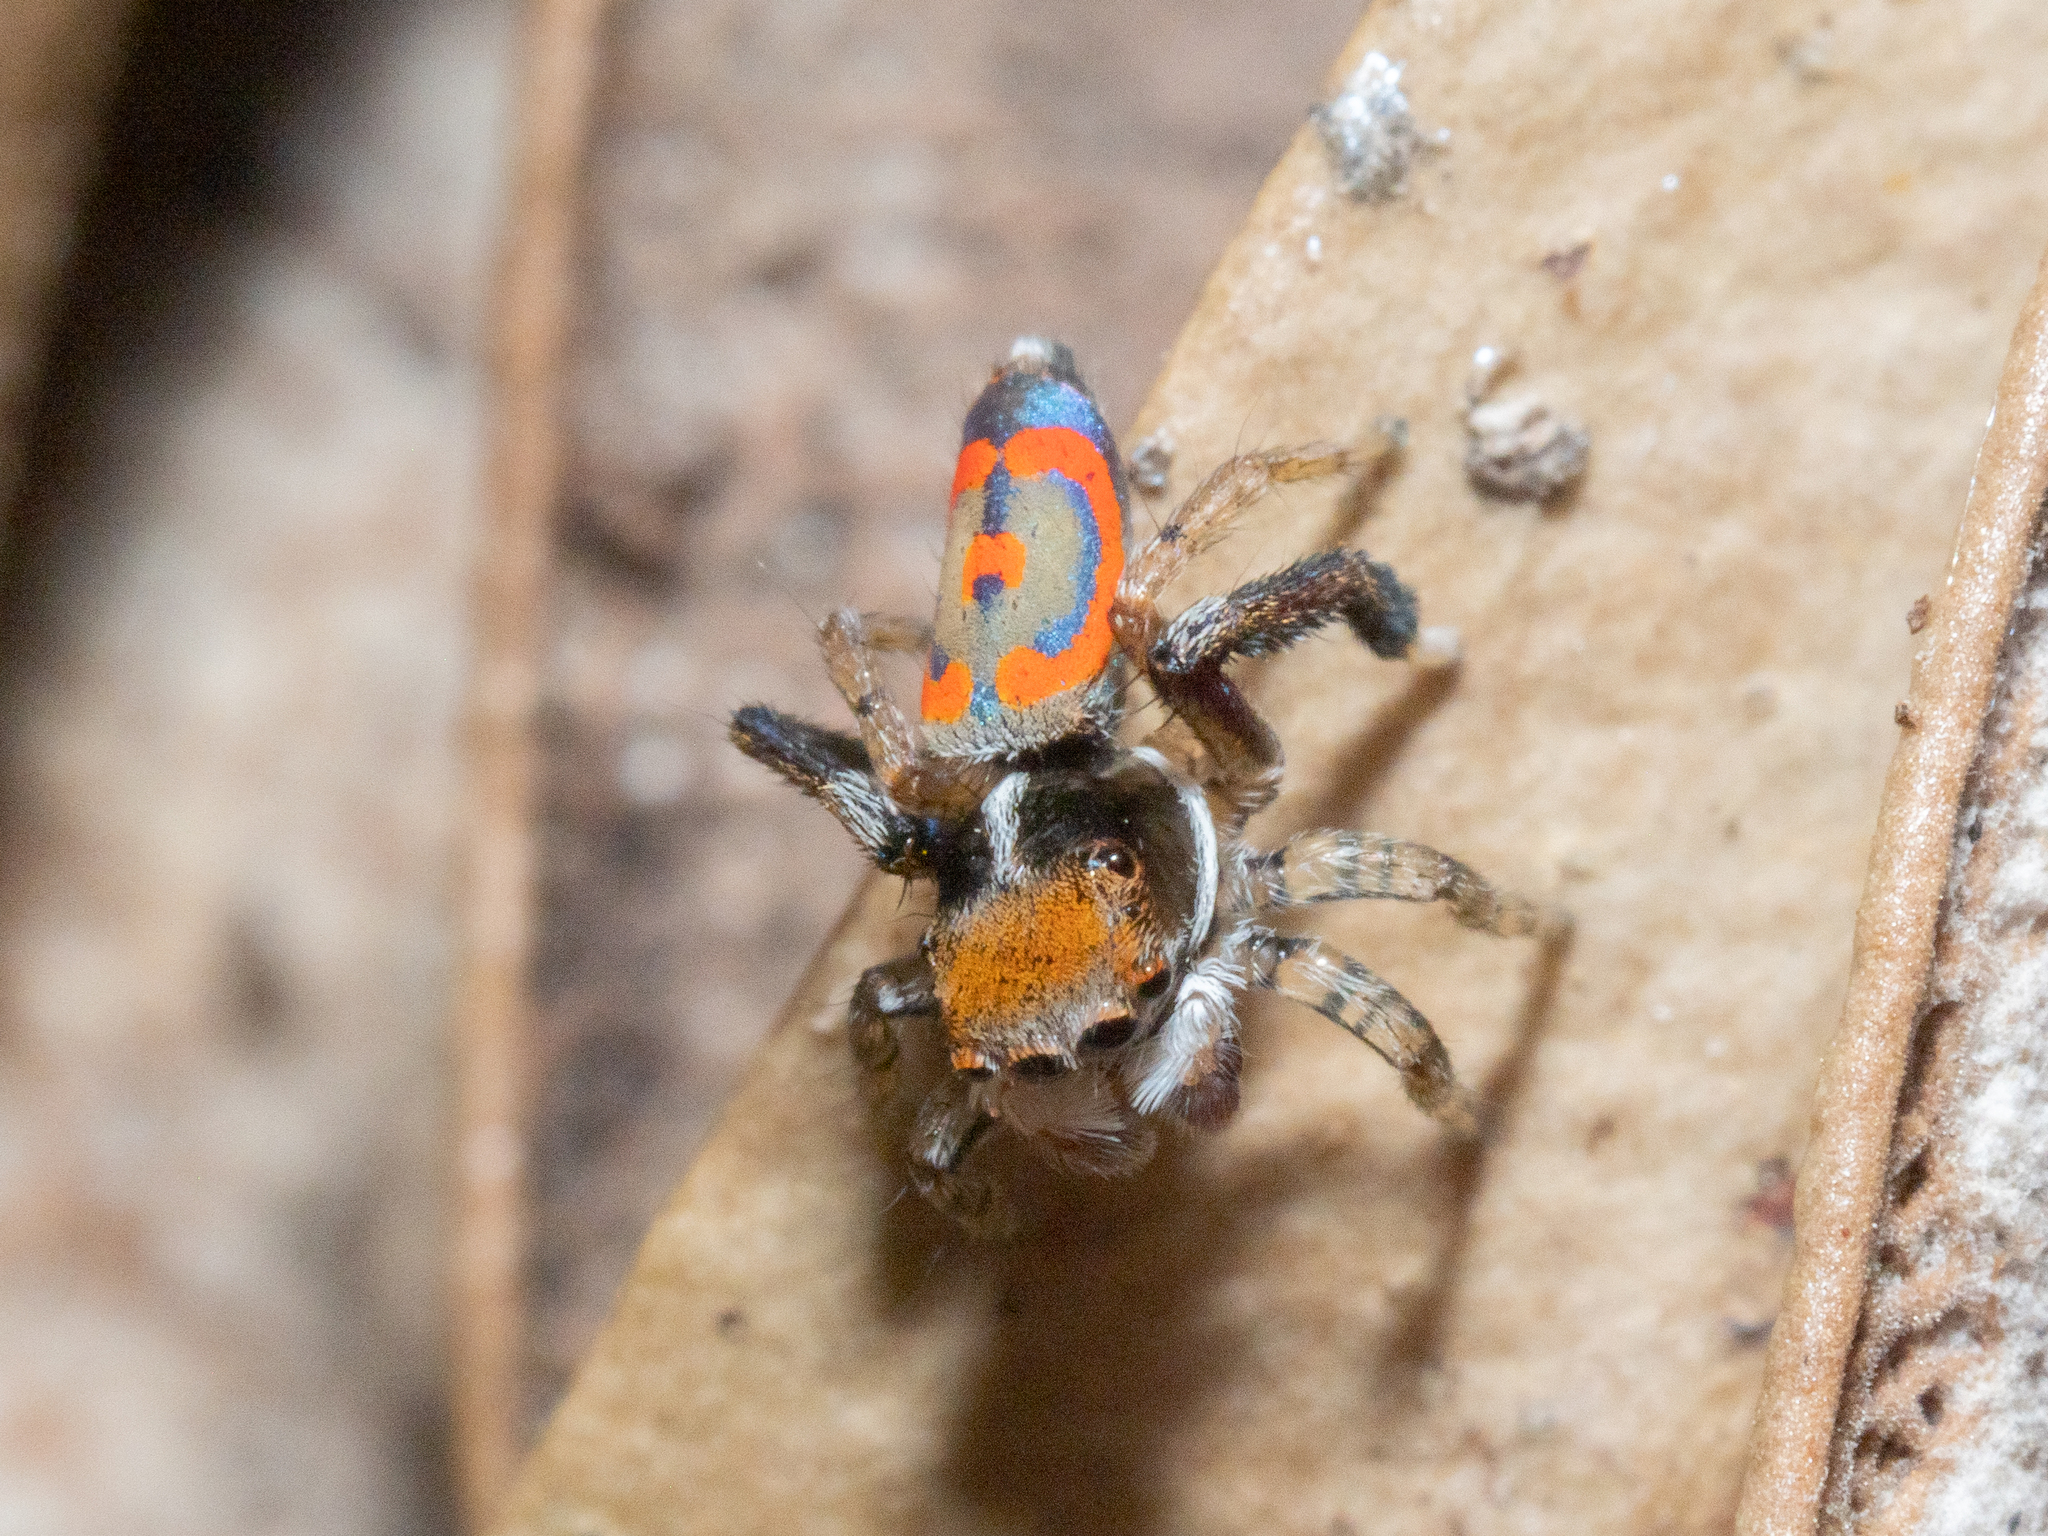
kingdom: Animalia
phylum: Arthropoda
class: Arachnida
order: Araneae
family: Salticidae
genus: Maratus
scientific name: Maratus pavonis
